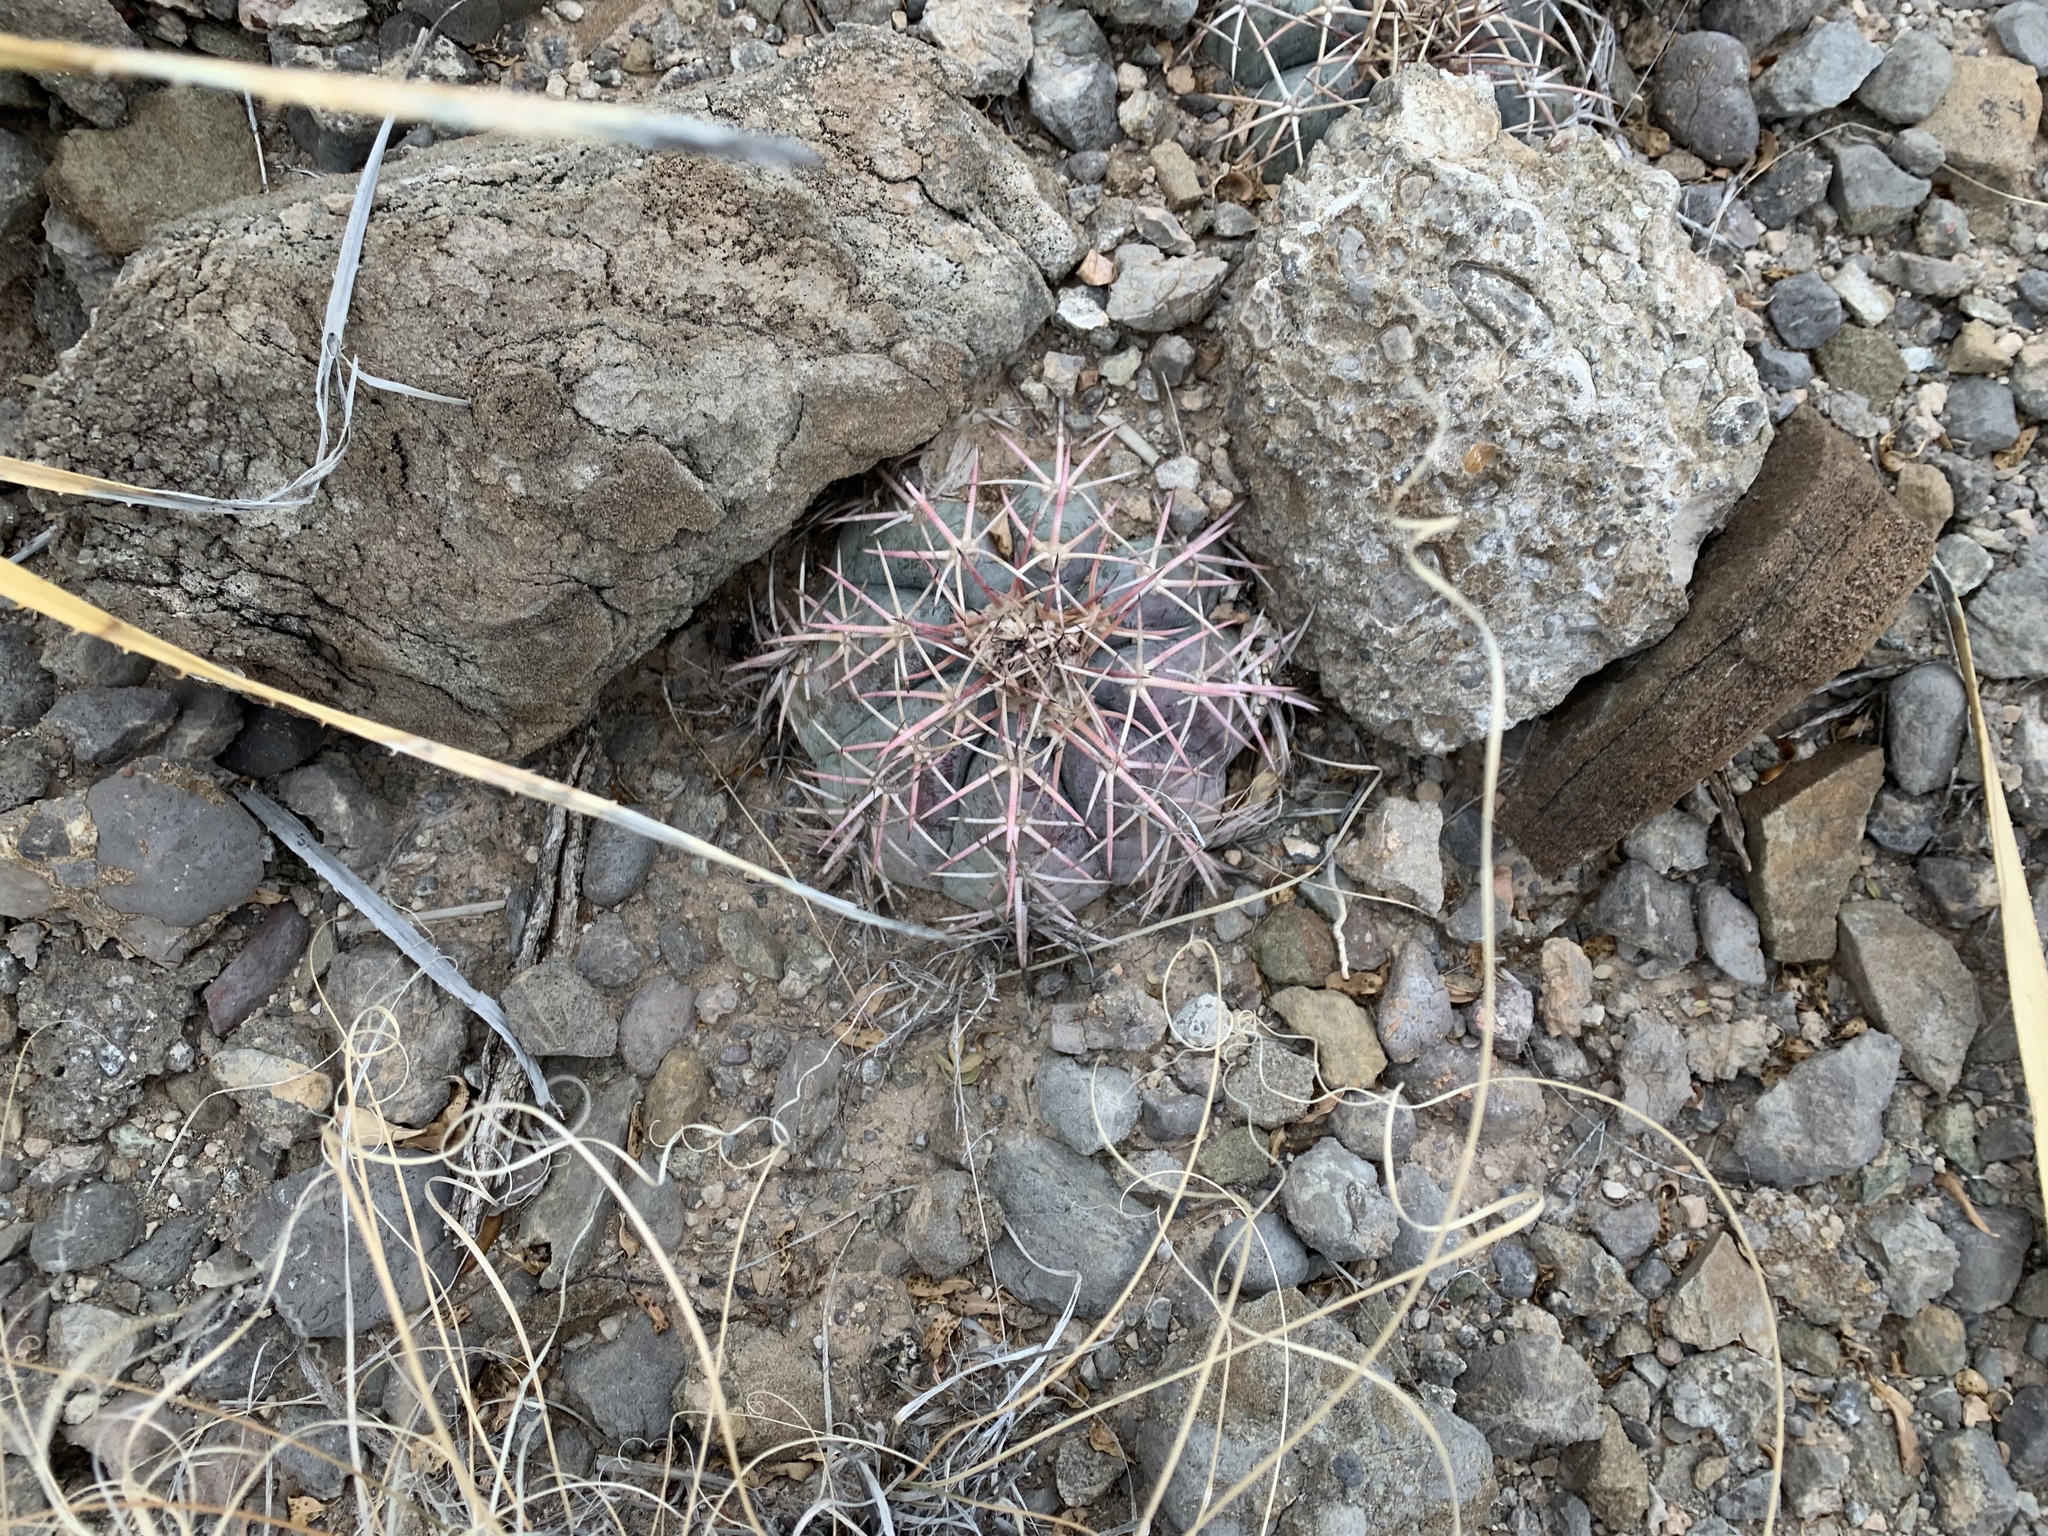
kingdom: Plantae
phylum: Tracheophyta
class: Magnoliopsida
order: Caryophyllales
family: Cactaceae
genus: Echinocactus
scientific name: Echinocactus horizonthalonius
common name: Devilshead
